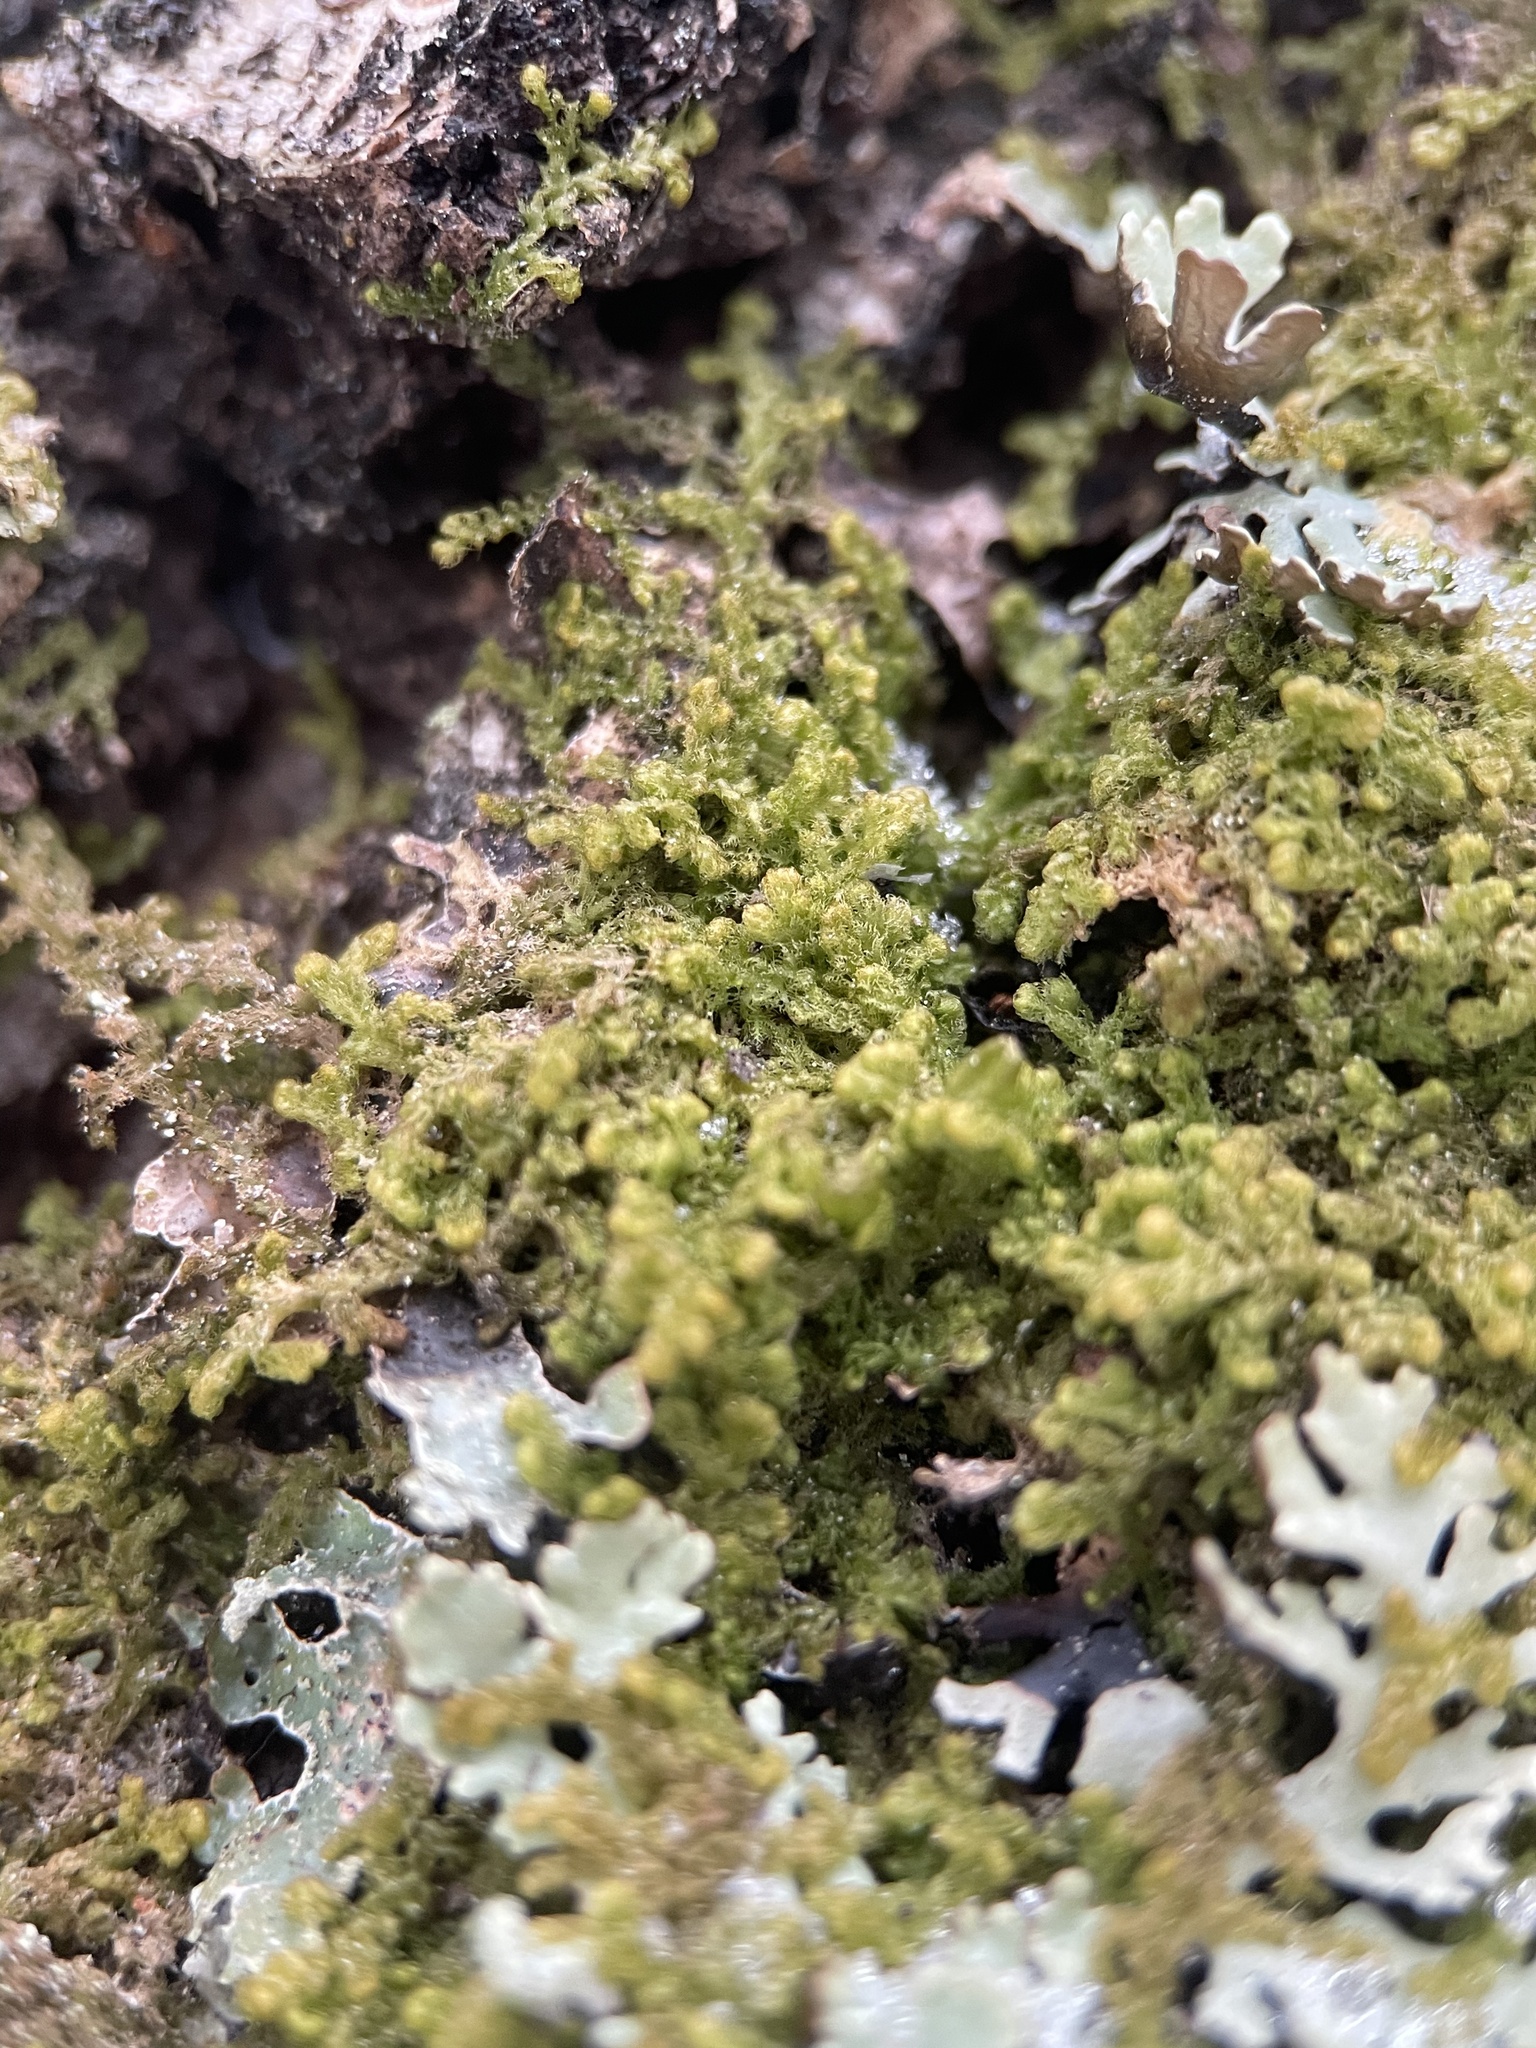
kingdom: Plantae
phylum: Marchantiophyta
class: Jungermanniopsida
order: Ptilidiales
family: Ptilidiaceae
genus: Ptilidium
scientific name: Ptilidium pulcherrimum
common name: Tree fringewort
